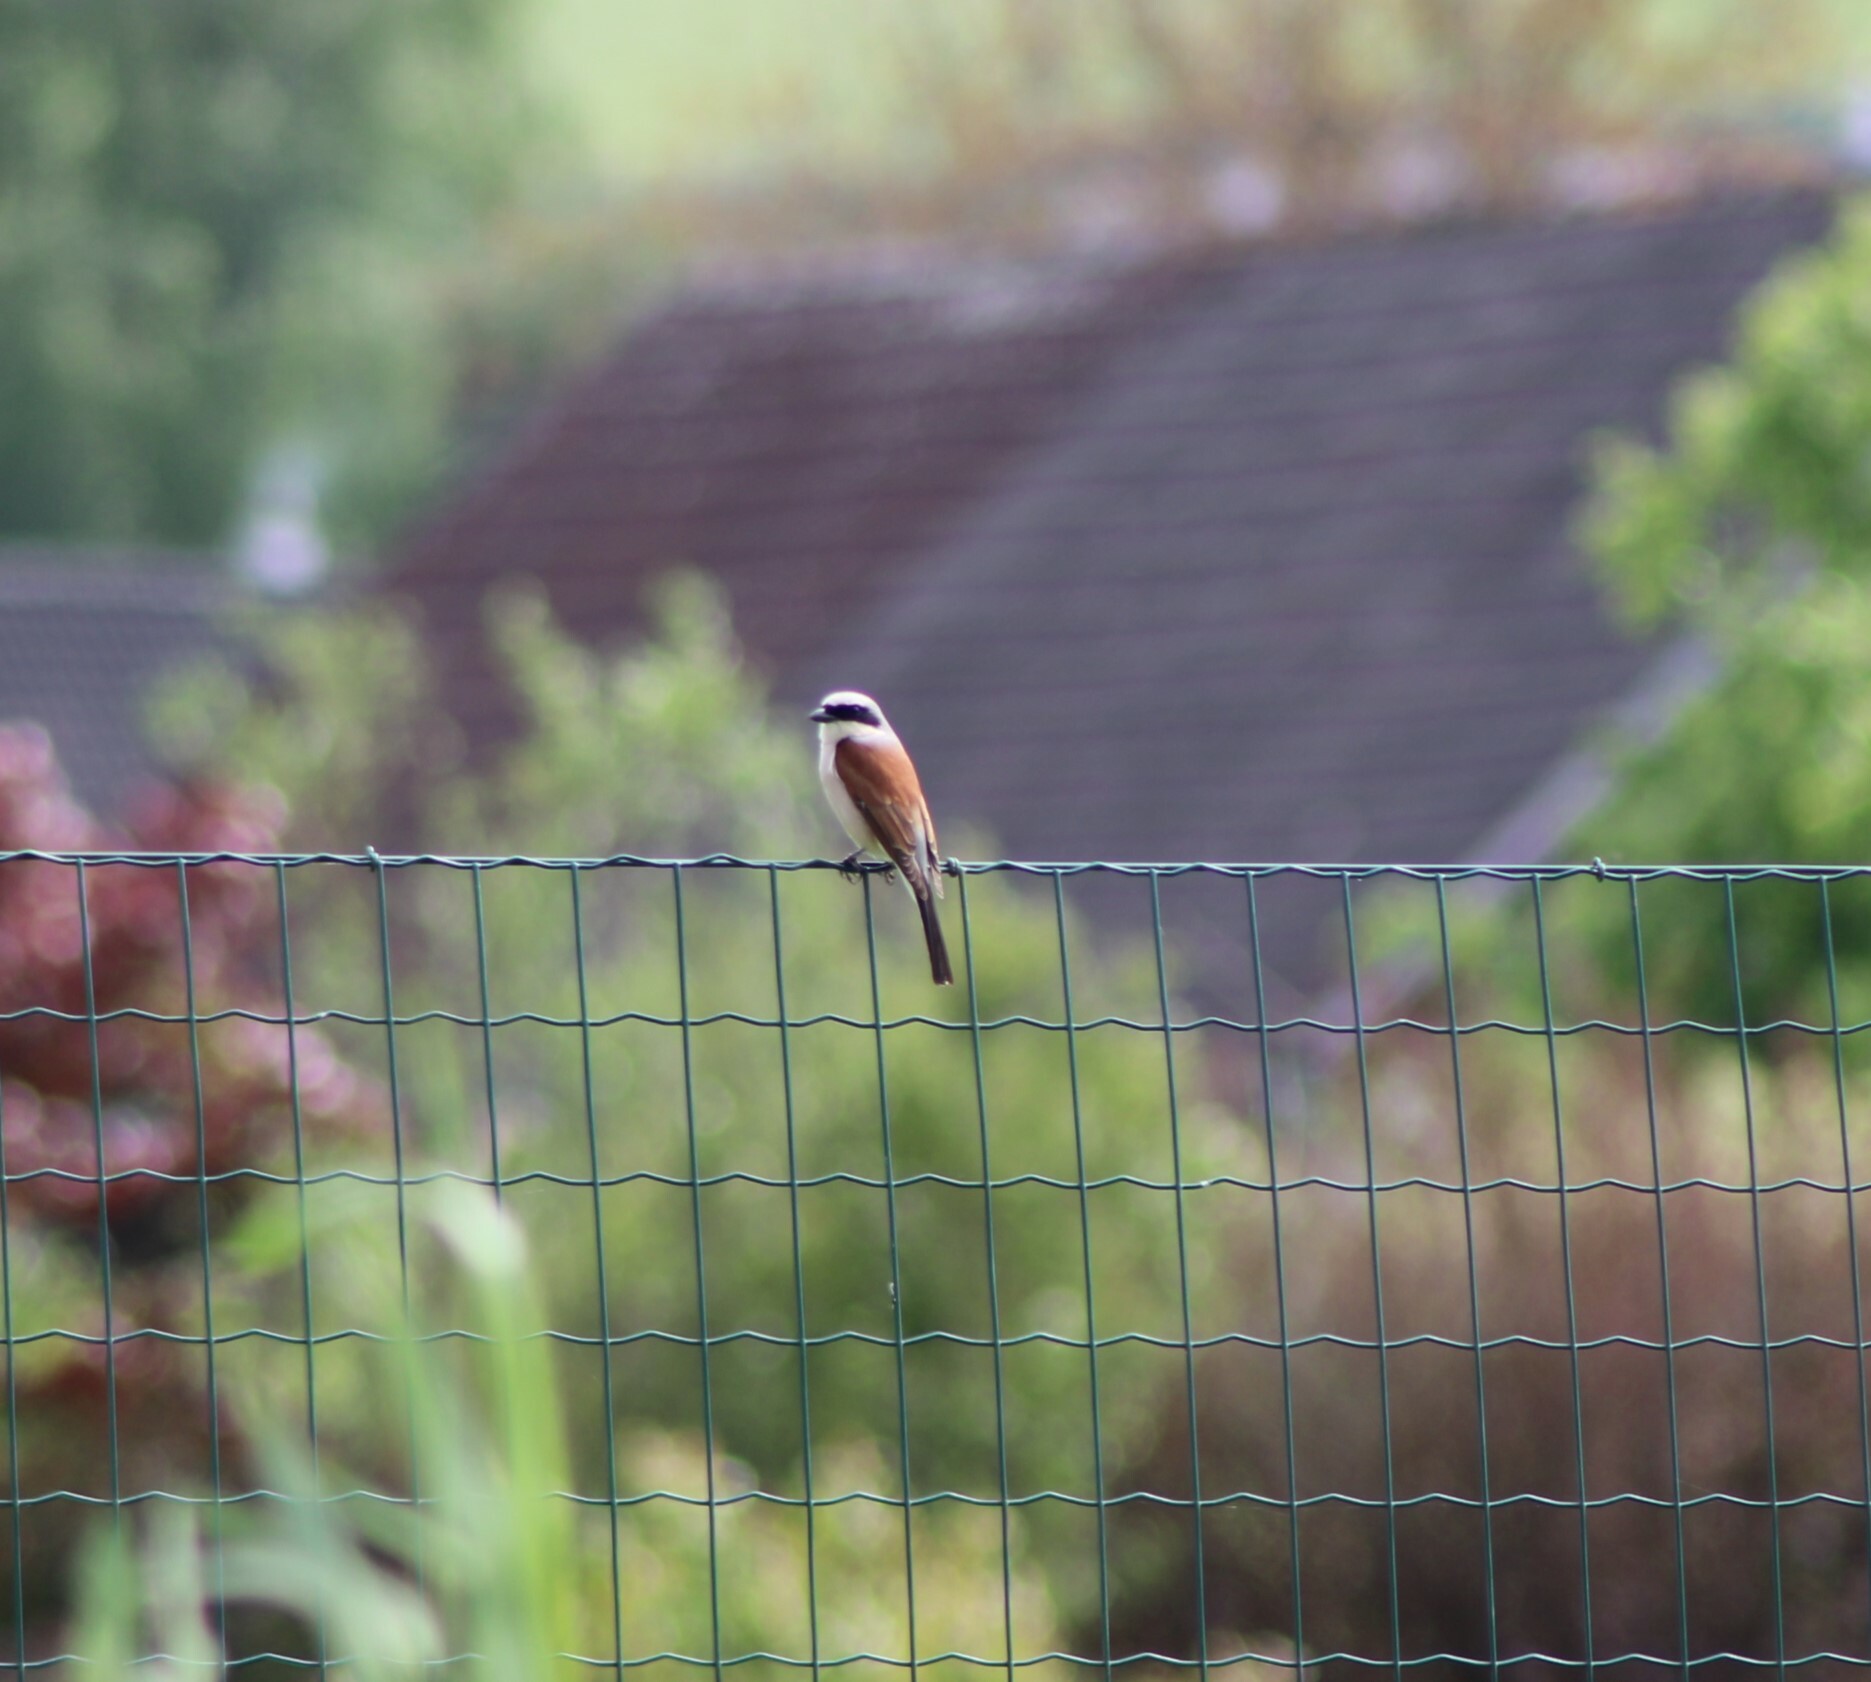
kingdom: Animalia
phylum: Chordata
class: Aves
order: Passeriformes
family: Laniidae
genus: Lanius
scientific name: Lanius collurio
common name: Red-backed shrike
